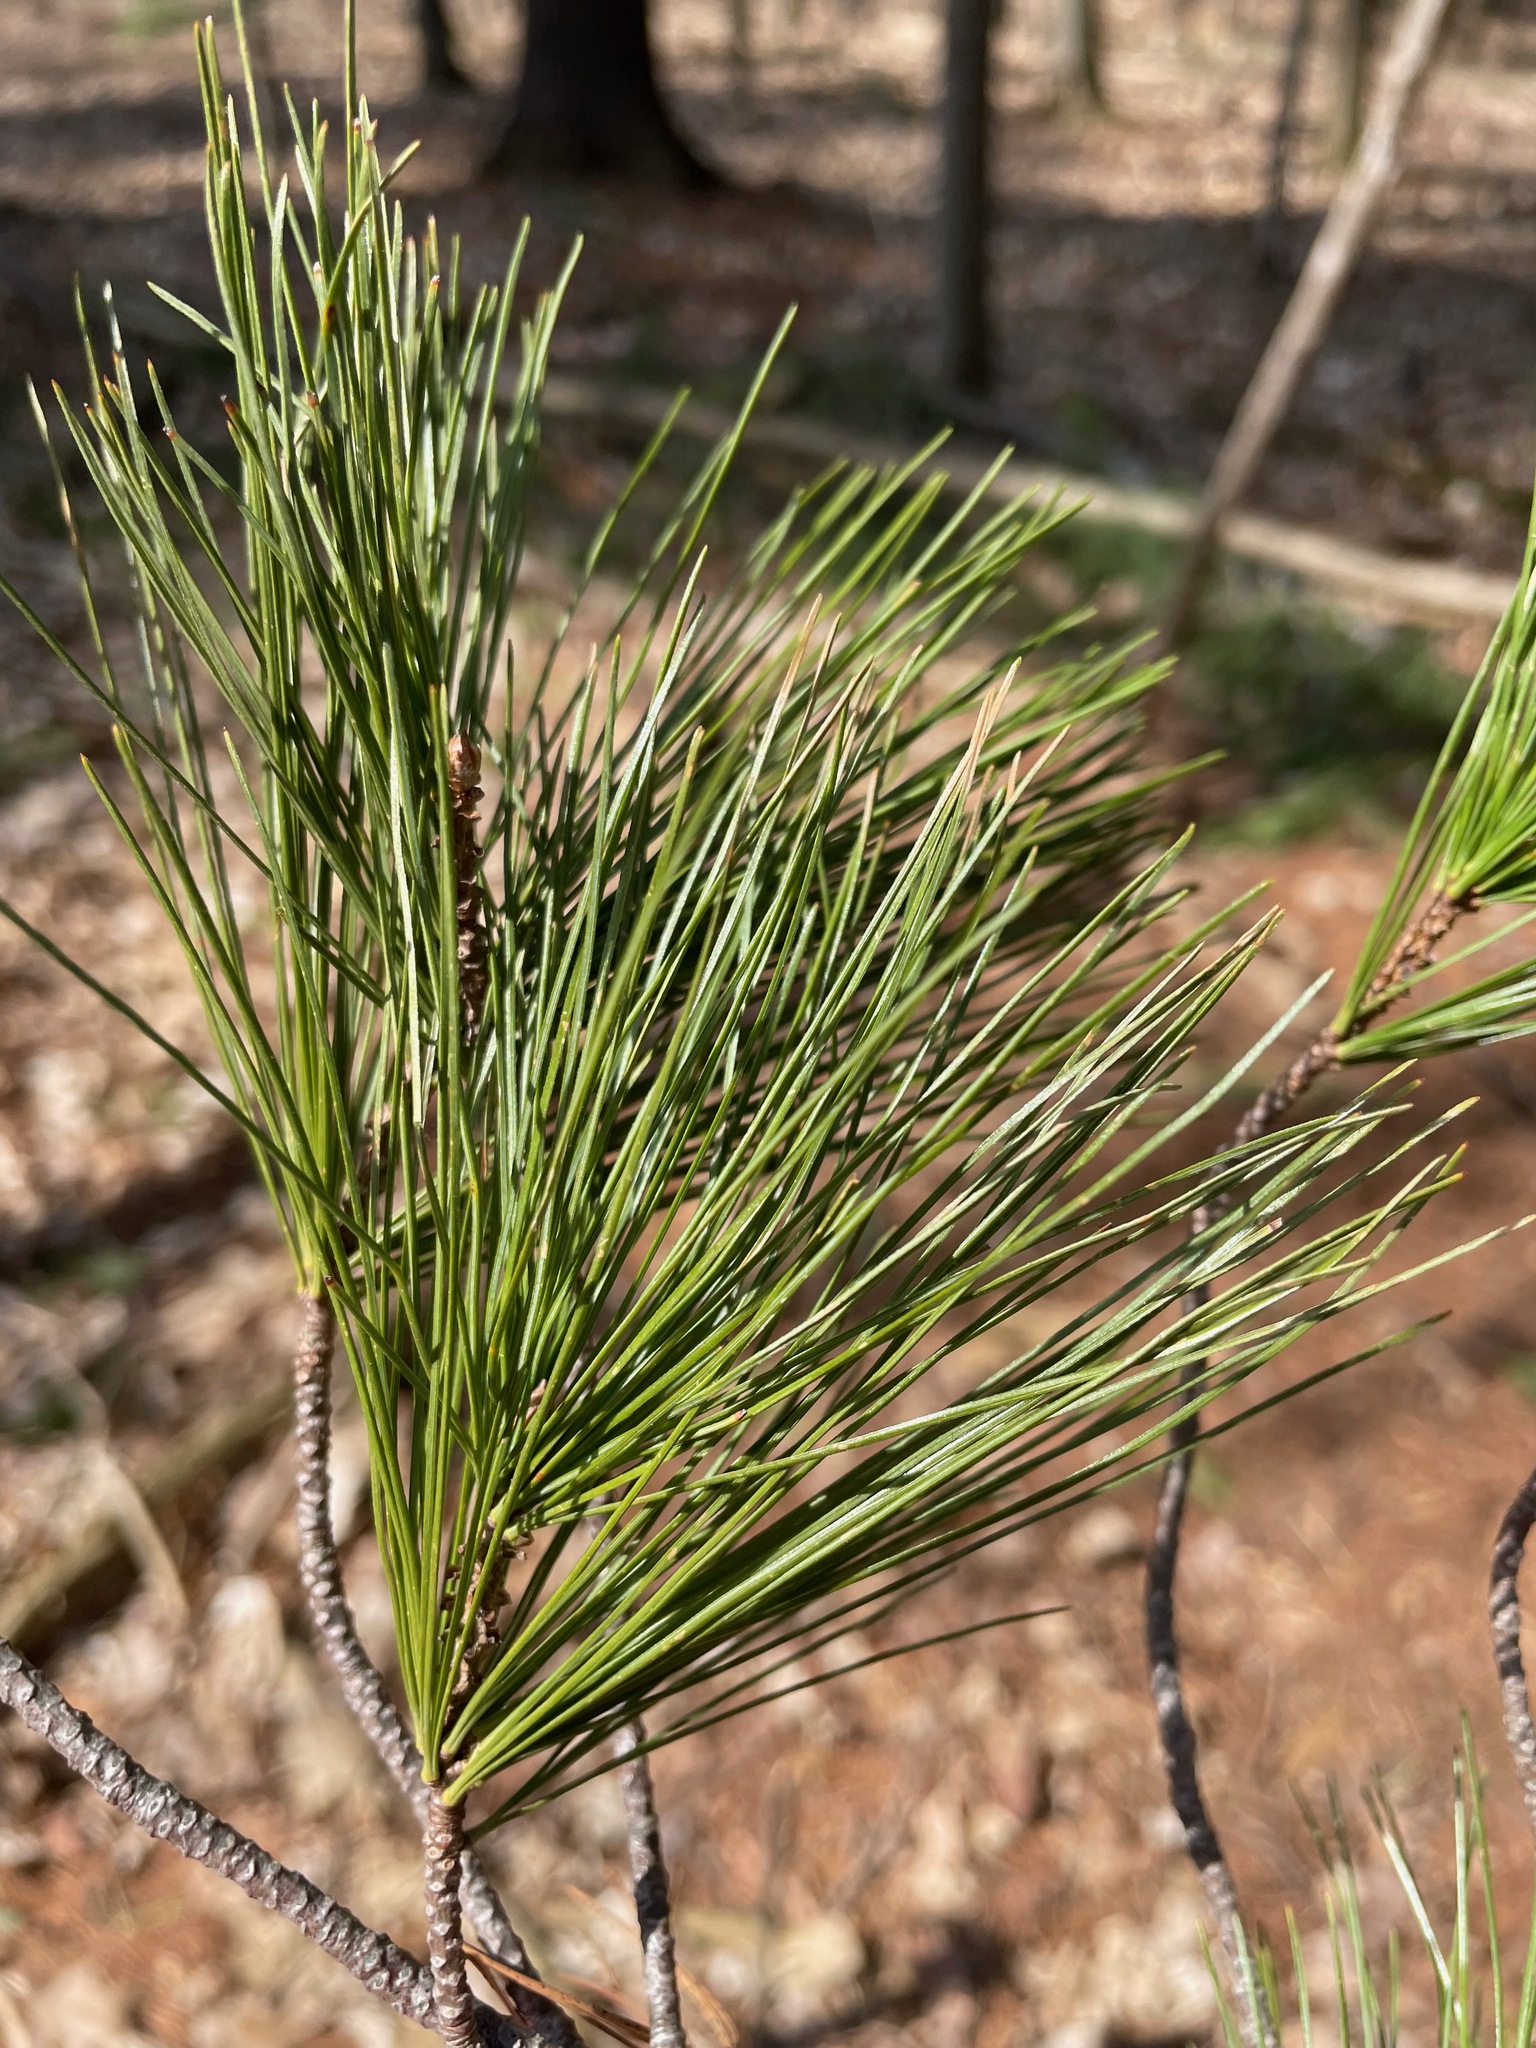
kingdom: Plantae
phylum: Tracheophyta
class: Pinopsida
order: Pinales
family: Pinaceae
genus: Pinus
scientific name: Pinus strobus
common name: Weymouth pine
